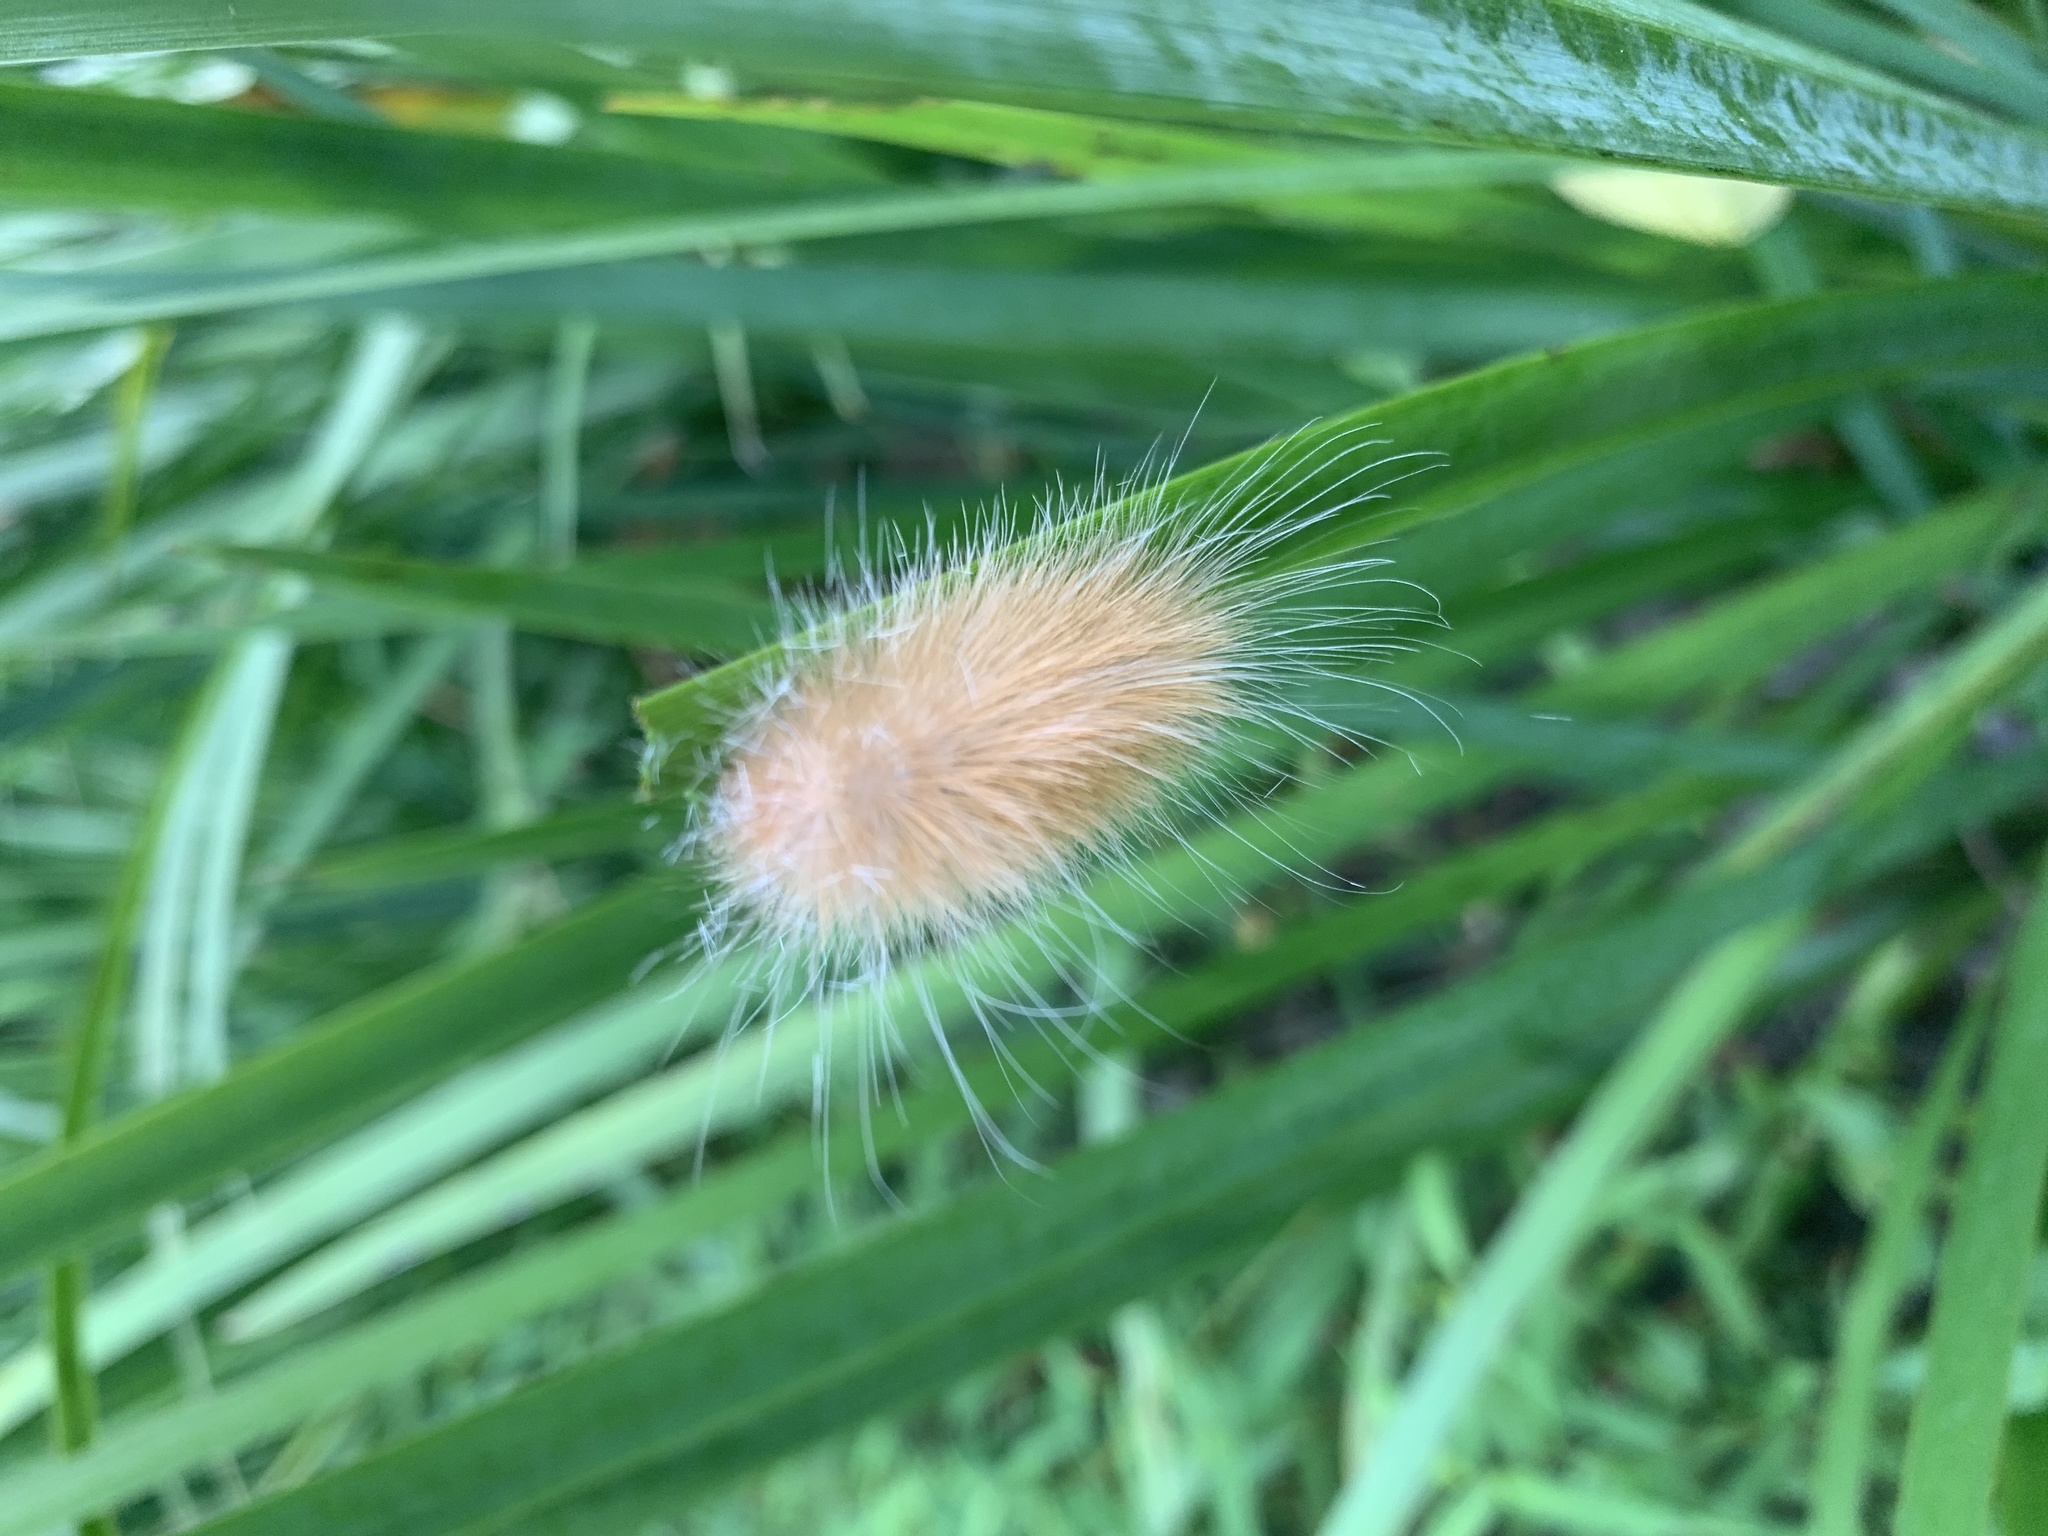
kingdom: Animalia
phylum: Arthropoda
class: Insecta
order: Lepidoptera
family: Erebidae
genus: Spilosoma
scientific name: Spilosoma virginica
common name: Virginia tiger moth
